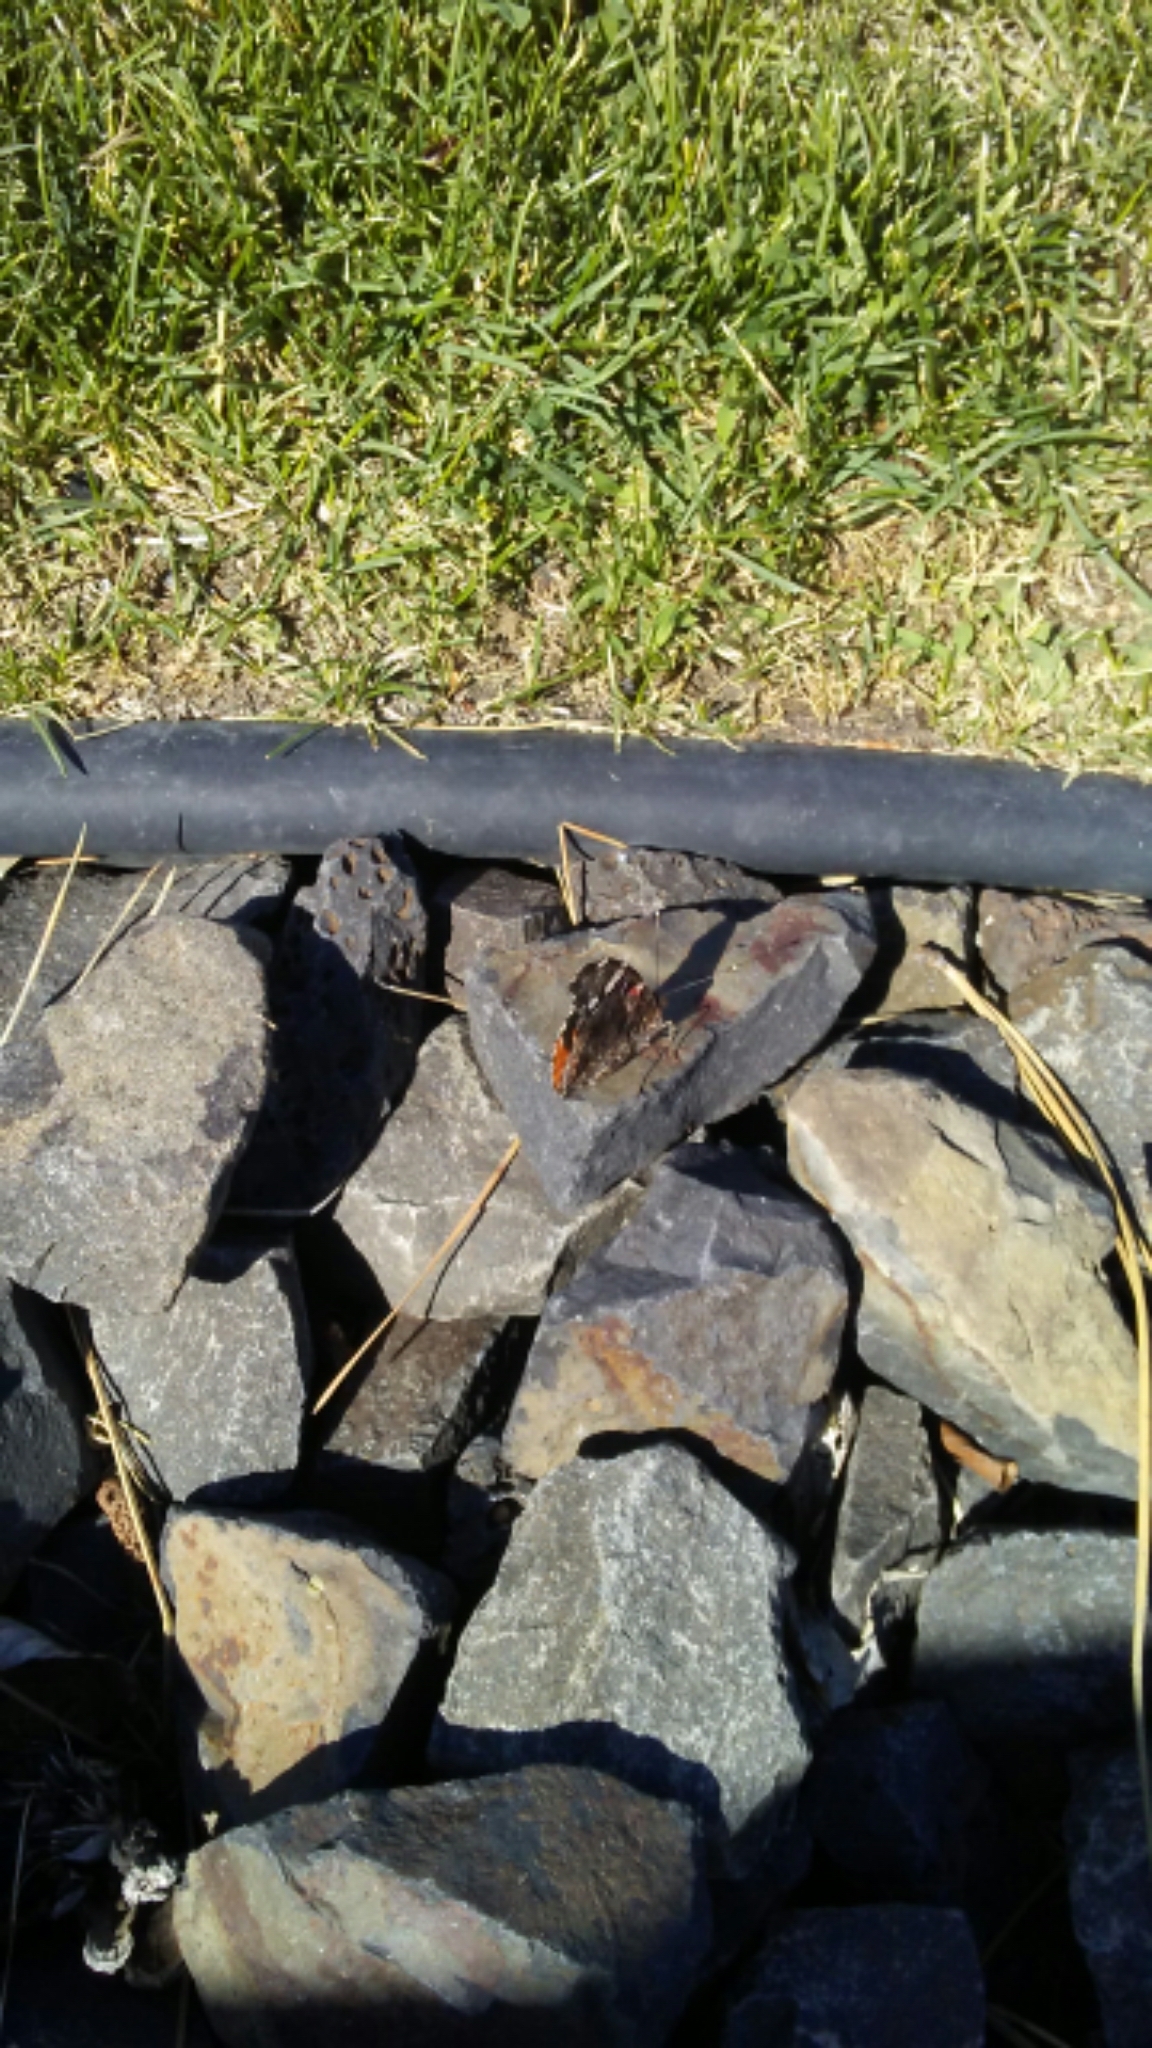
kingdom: Animalia
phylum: Arthropoda
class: Insecta
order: Lepidoptera
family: Nymphalidae
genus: Vanessa
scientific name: Vanessa atalanta
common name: Red admiral
